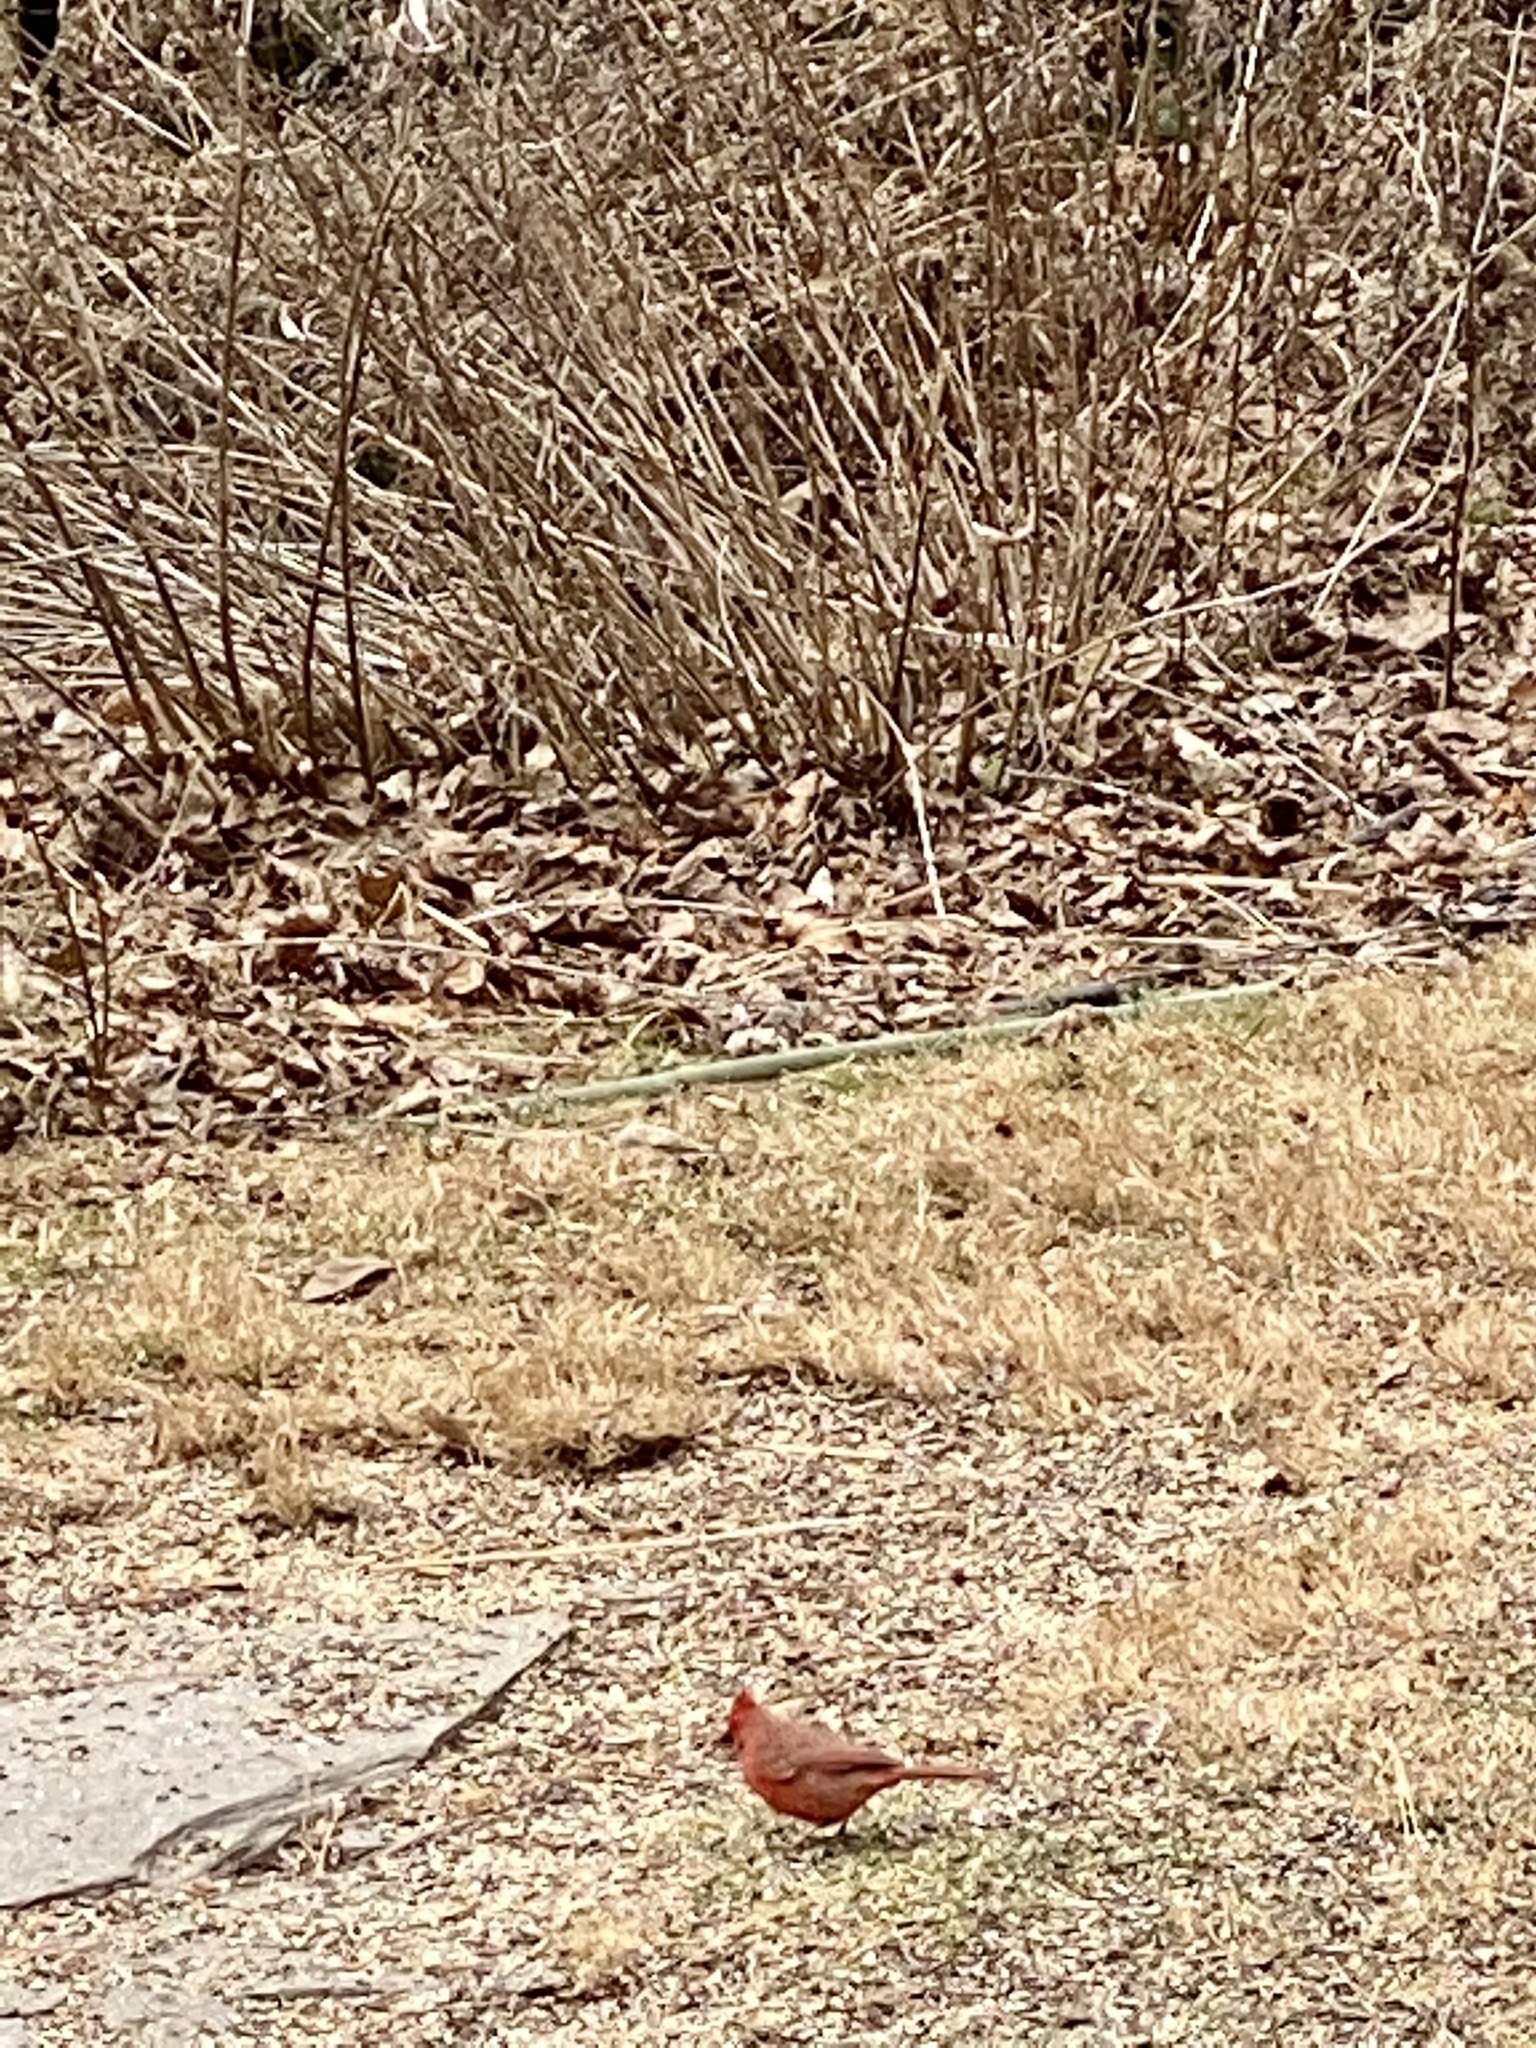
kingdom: Animalia
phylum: Chordata
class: Aves
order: Passeriformes
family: Cardinalidae
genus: Cardinalis
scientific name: Cardinalis cardinalis
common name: Northern cardinal
